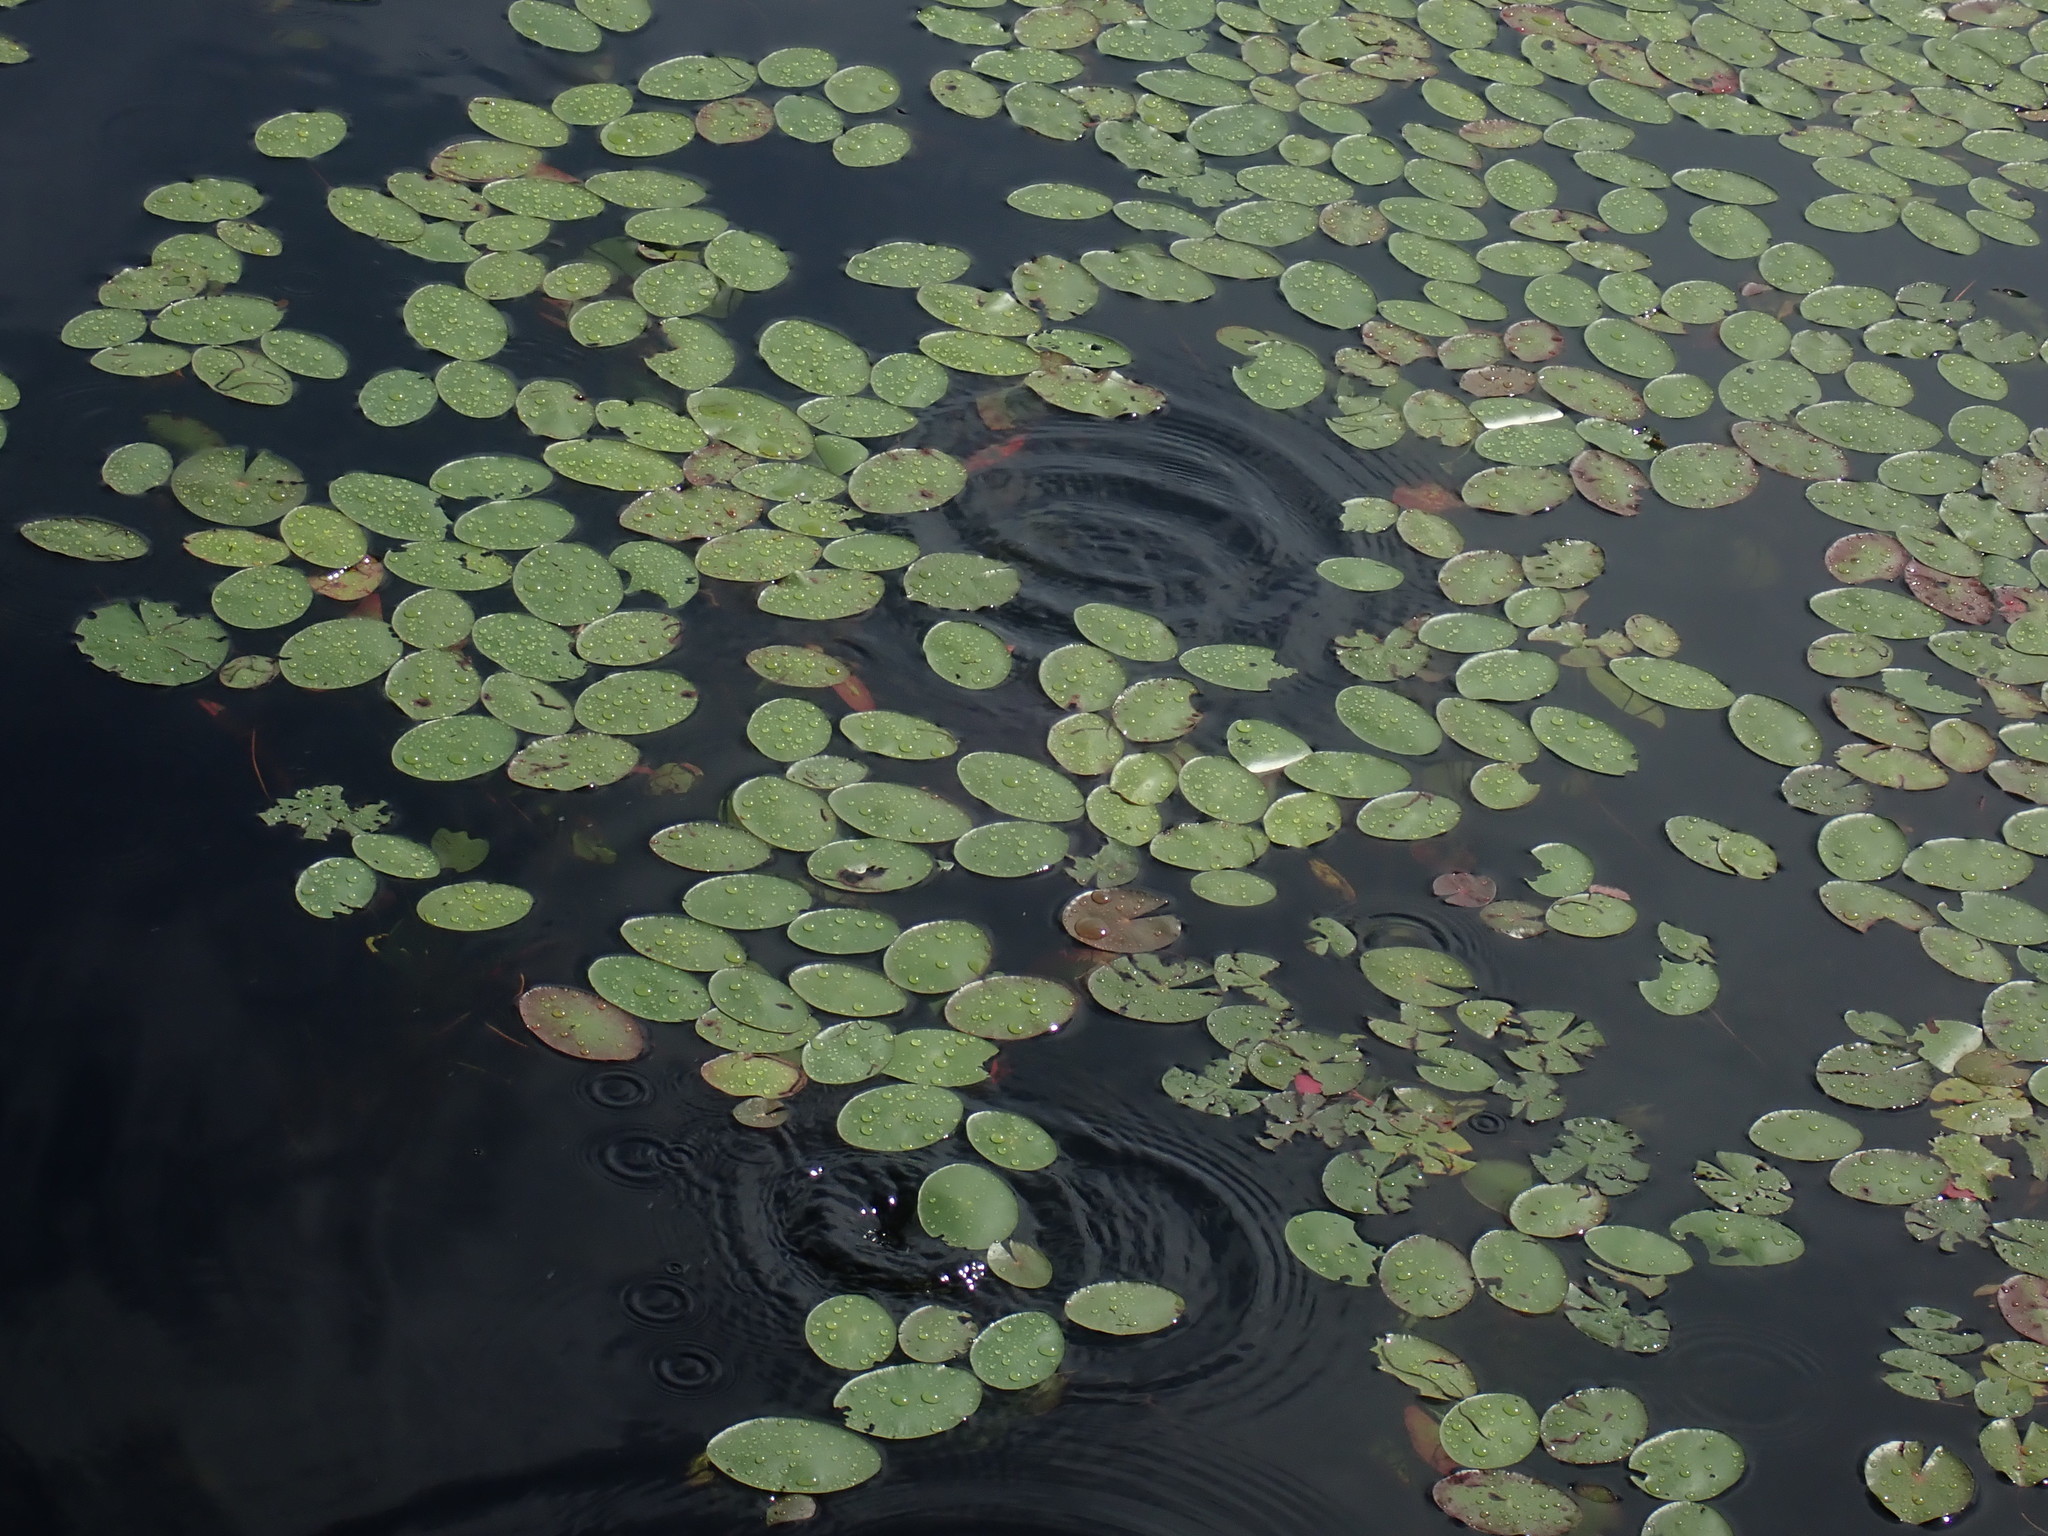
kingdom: Plantae
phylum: Tracheophyta
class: Magnoliopsida
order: Nymphaeales
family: Cabombaceae
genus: Brasenia
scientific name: Brasenia schreberi
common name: Water-shield
